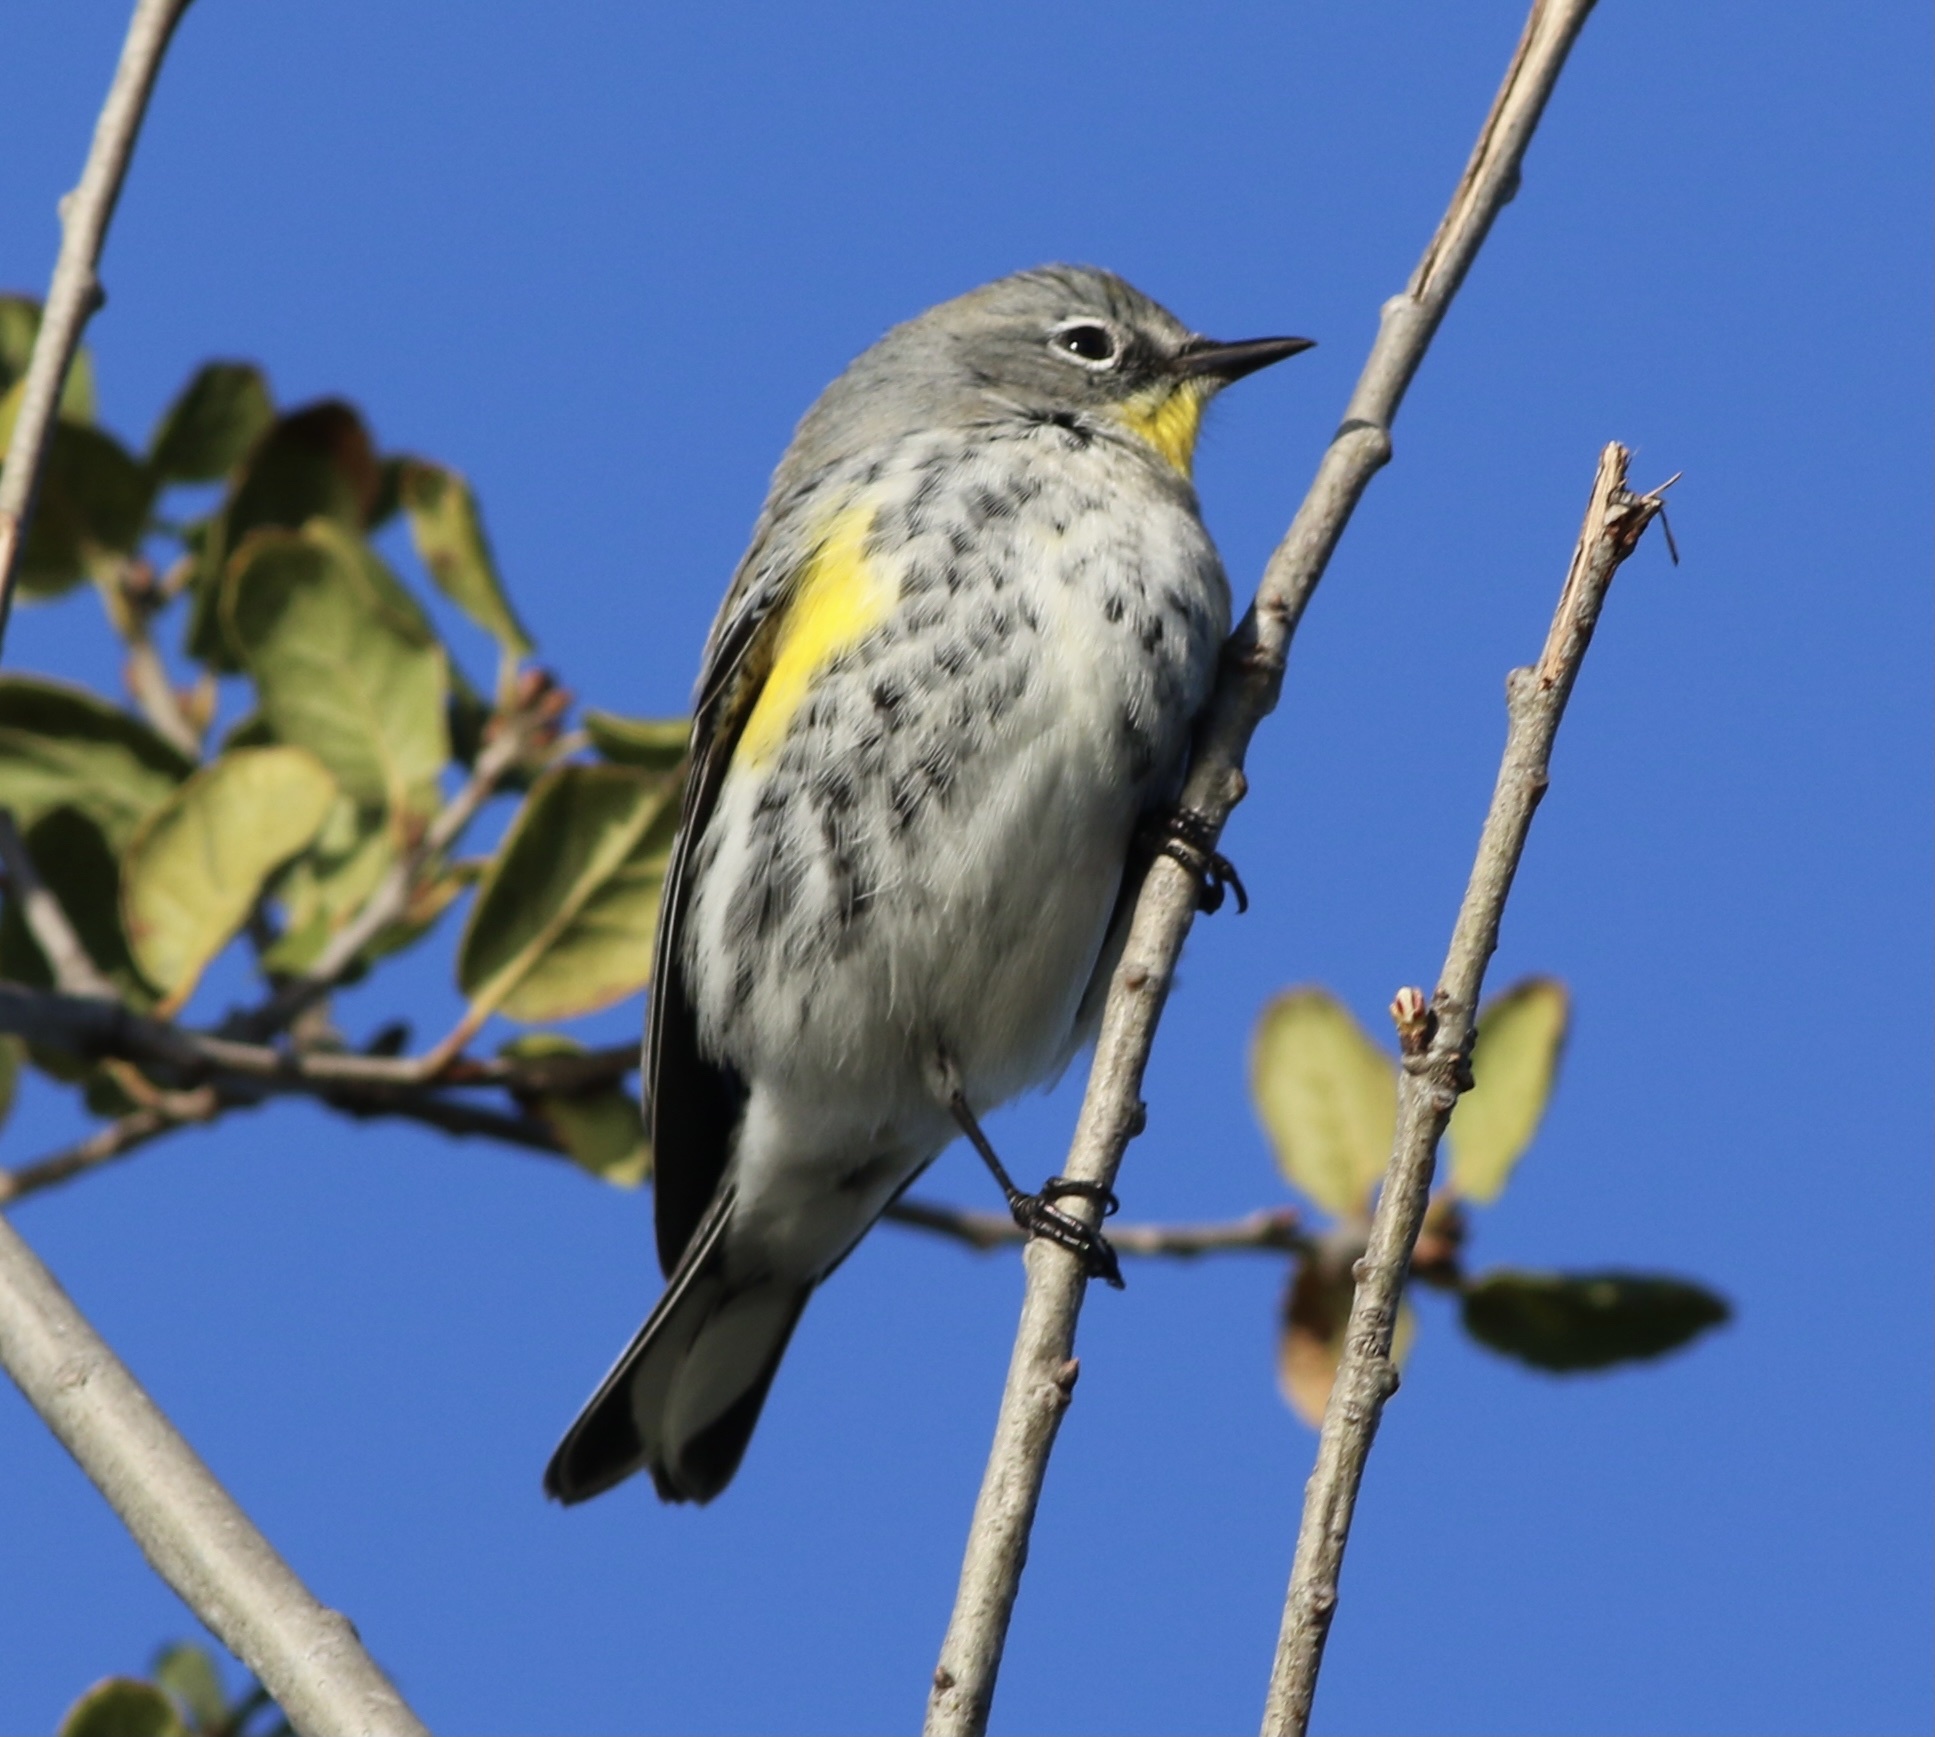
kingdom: Animalia
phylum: Chordata
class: Aves
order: Passeriformes
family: Parulidae
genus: Setophaga
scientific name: Setophaga coronata
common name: Myrtle warbler
